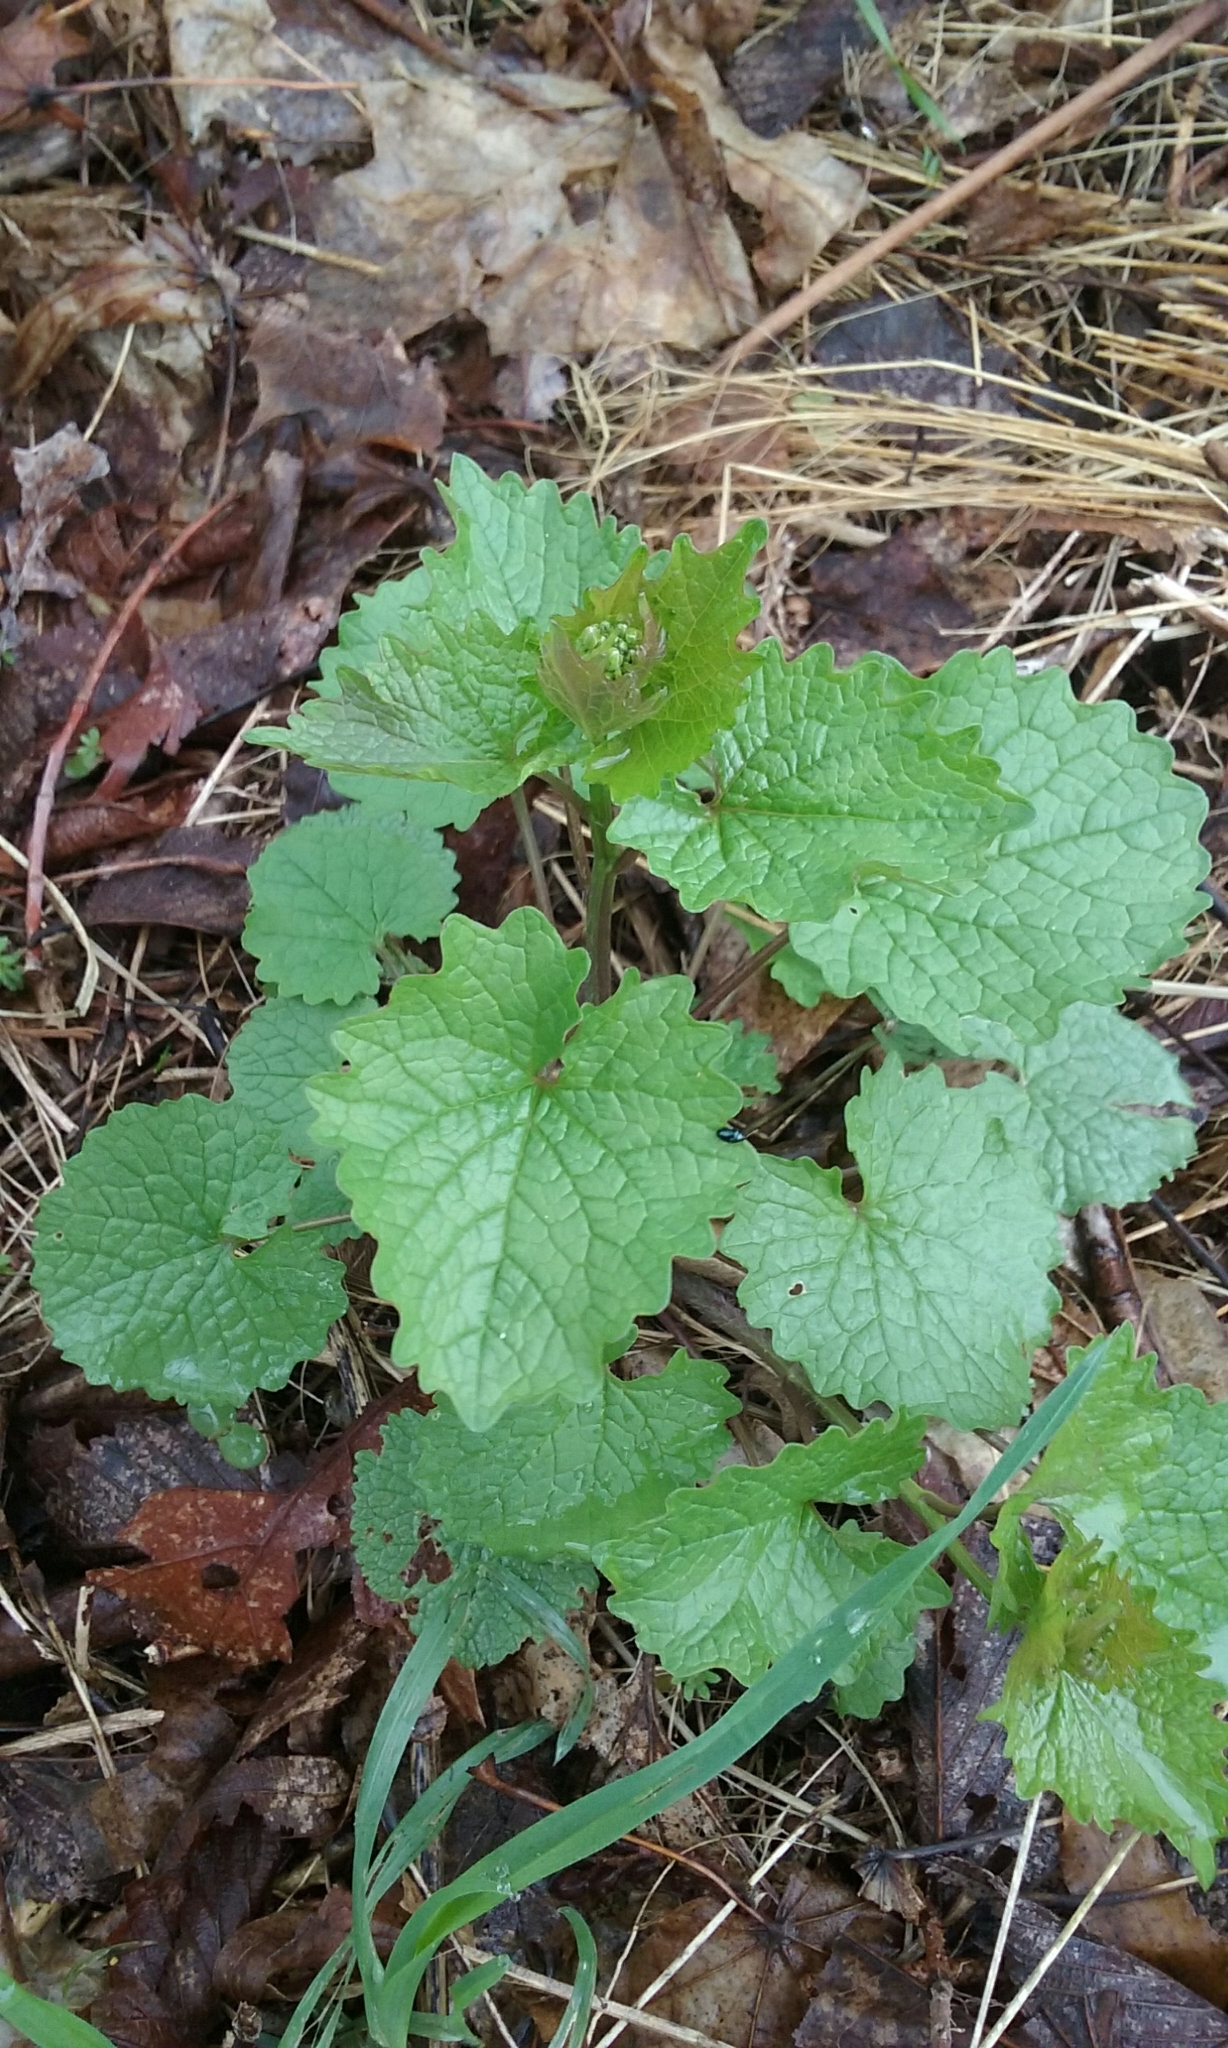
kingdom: Plantae
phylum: Tracheophyta
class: Magnoliopsida
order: Brassicales
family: Brassicaceae
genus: Alliaria
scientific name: Alliaria petiolata
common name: Garlic mustard
